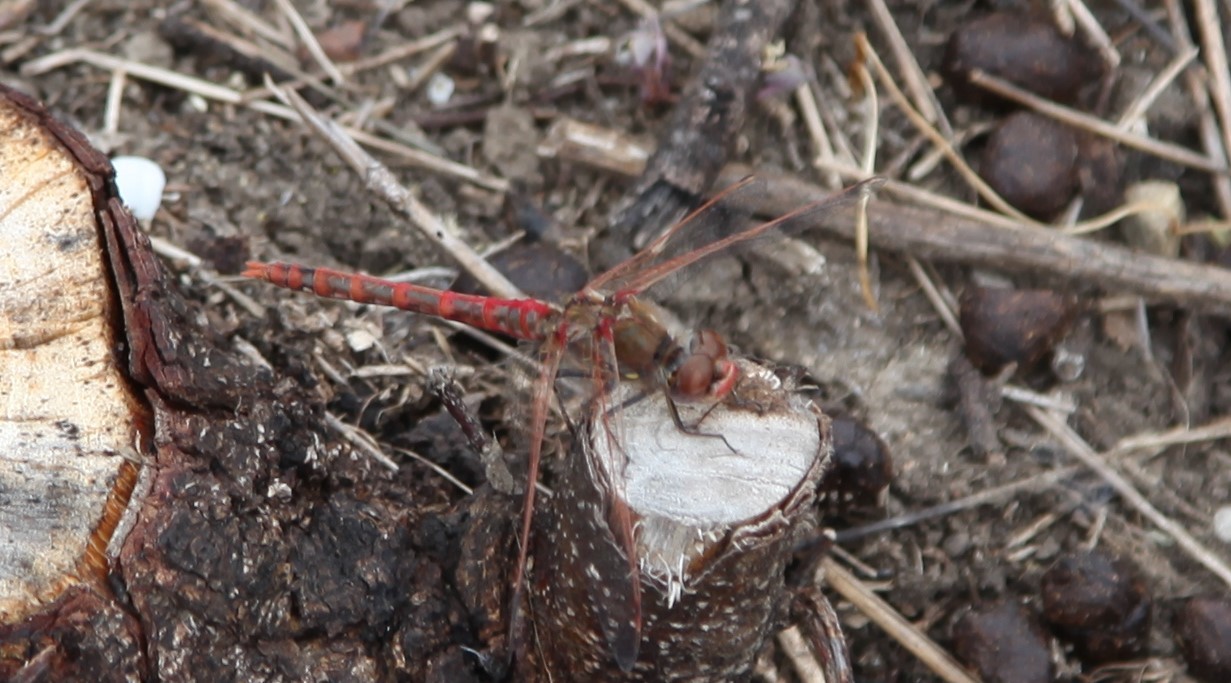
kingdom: Animalia
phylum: Arthropoda
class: Insecta
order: Odonata
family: Libellulidae
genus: Sympetrum
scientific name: Sympetrum corruptum
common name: Variegated meadowhawk
